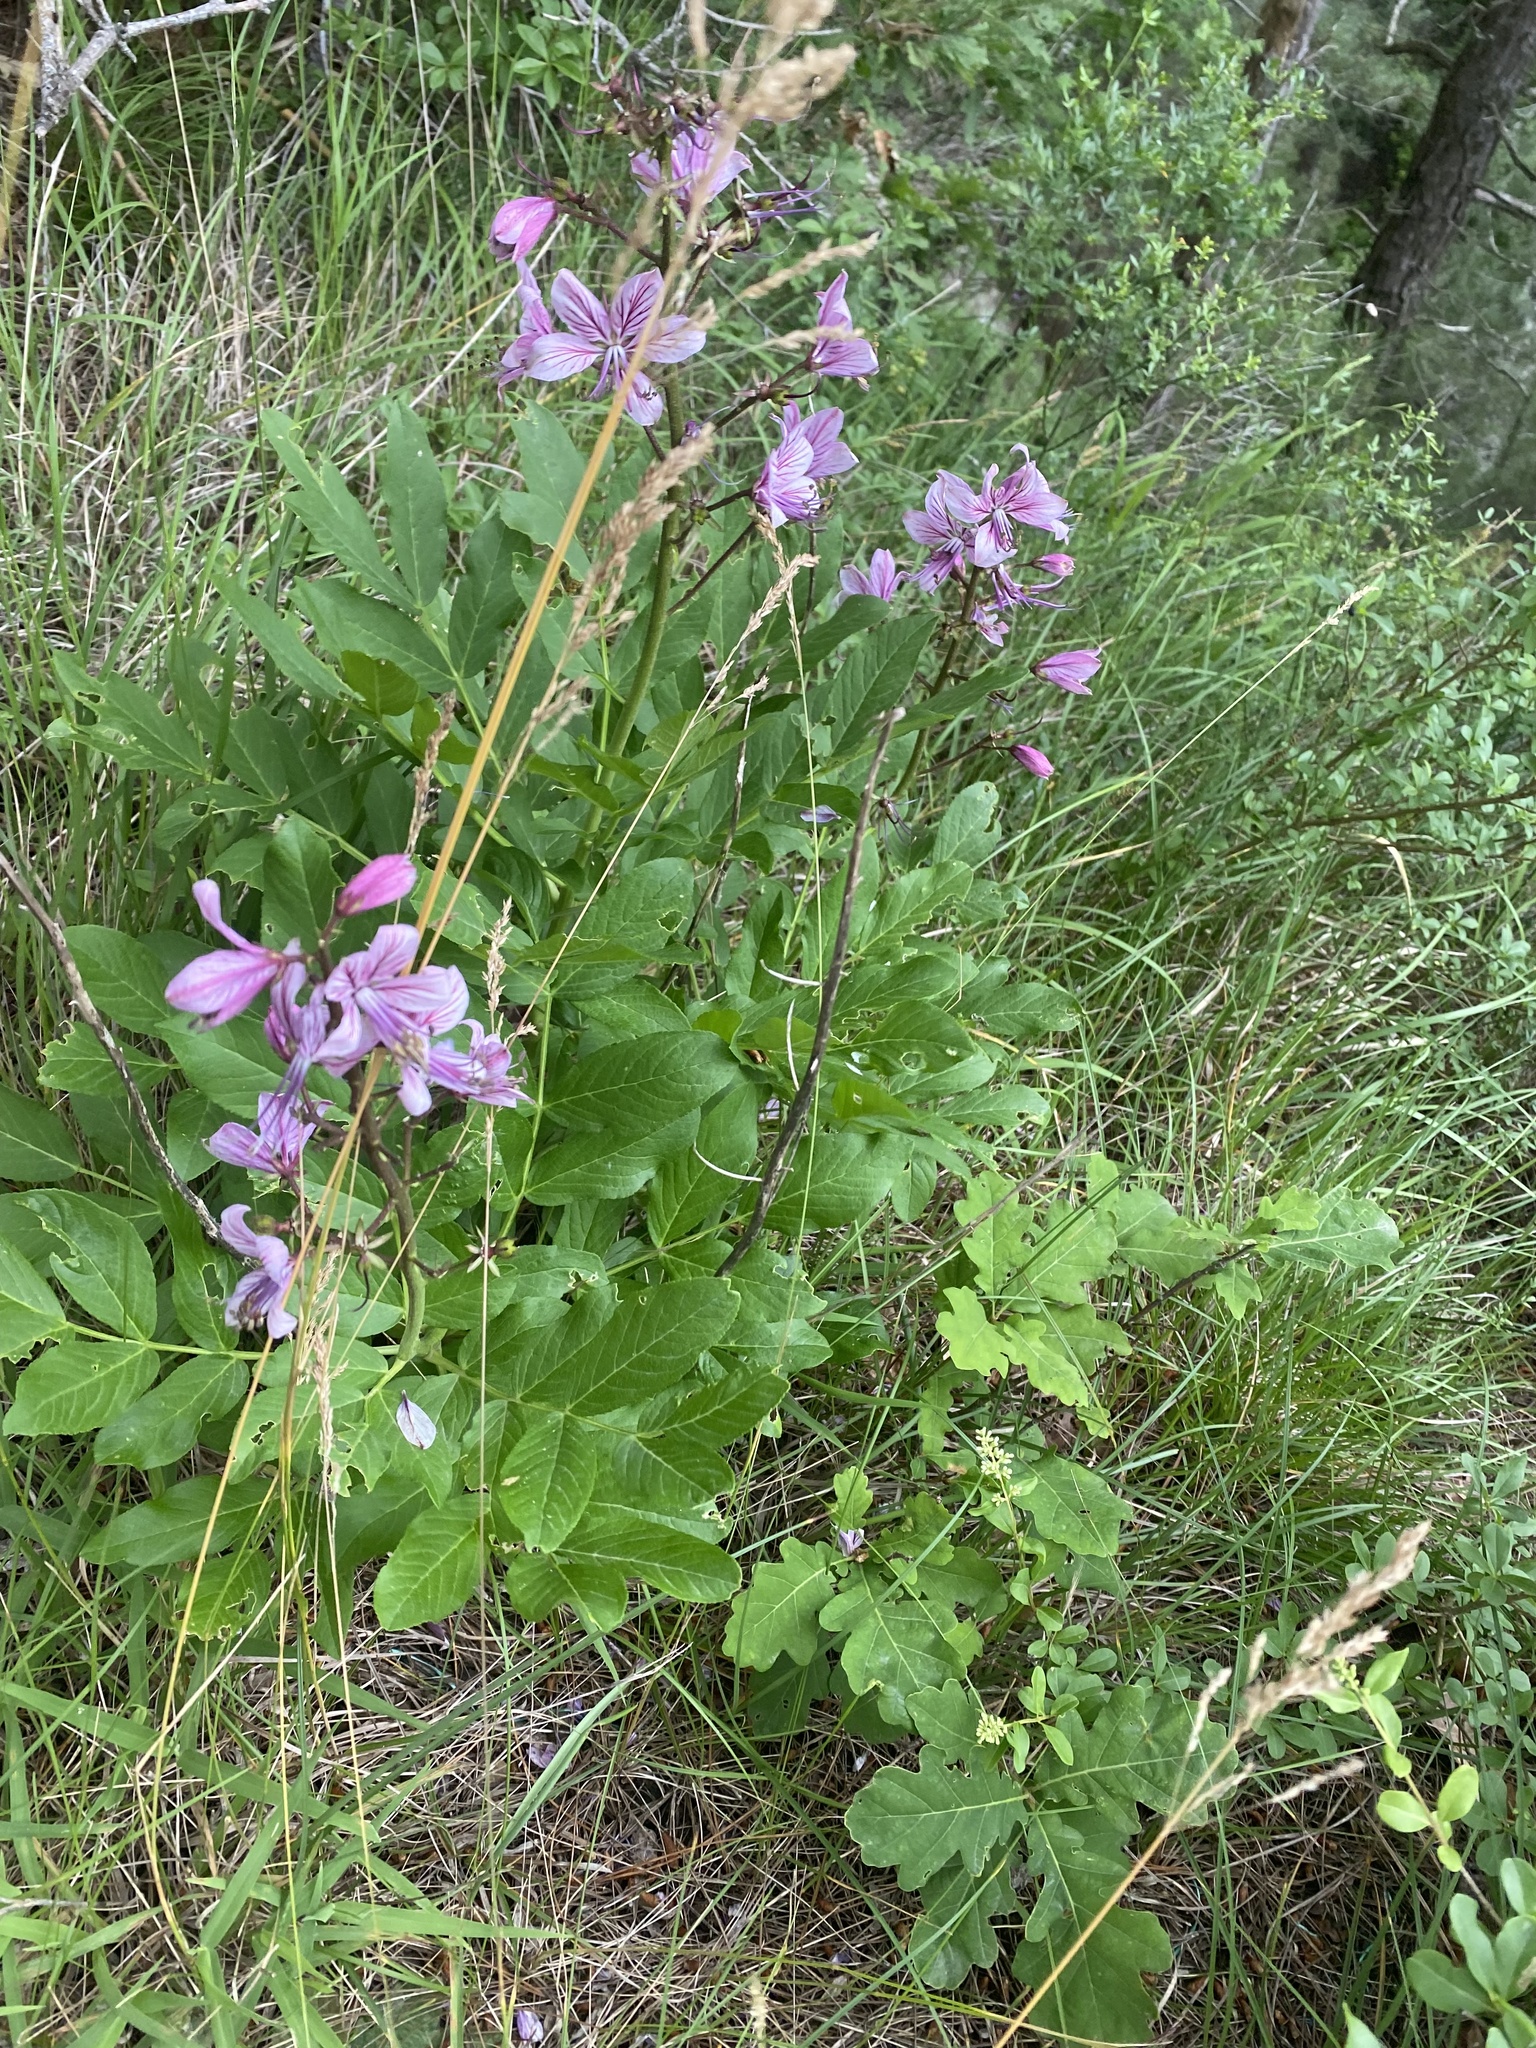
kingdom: Plantae
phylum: Tracheophyta
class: Magnoliopsida
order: Sapindales
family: Rutaceae
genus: Dictamnus
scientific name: Dictamnus albus
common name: Gasplant
